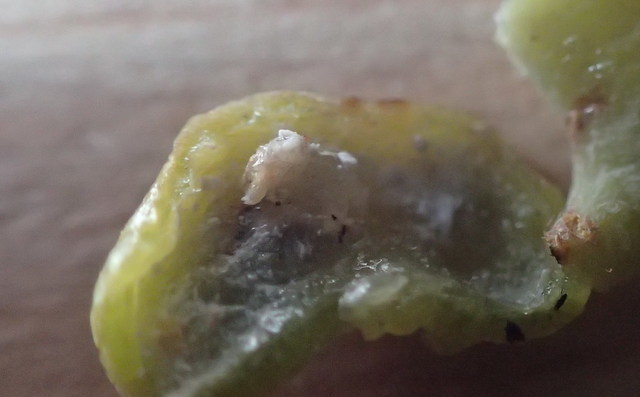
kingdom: Animalia
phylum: Arthropoda
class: Insecta
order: Hemiptera
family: Triozidae
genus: Trioza
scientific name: Trioza magnoliae
